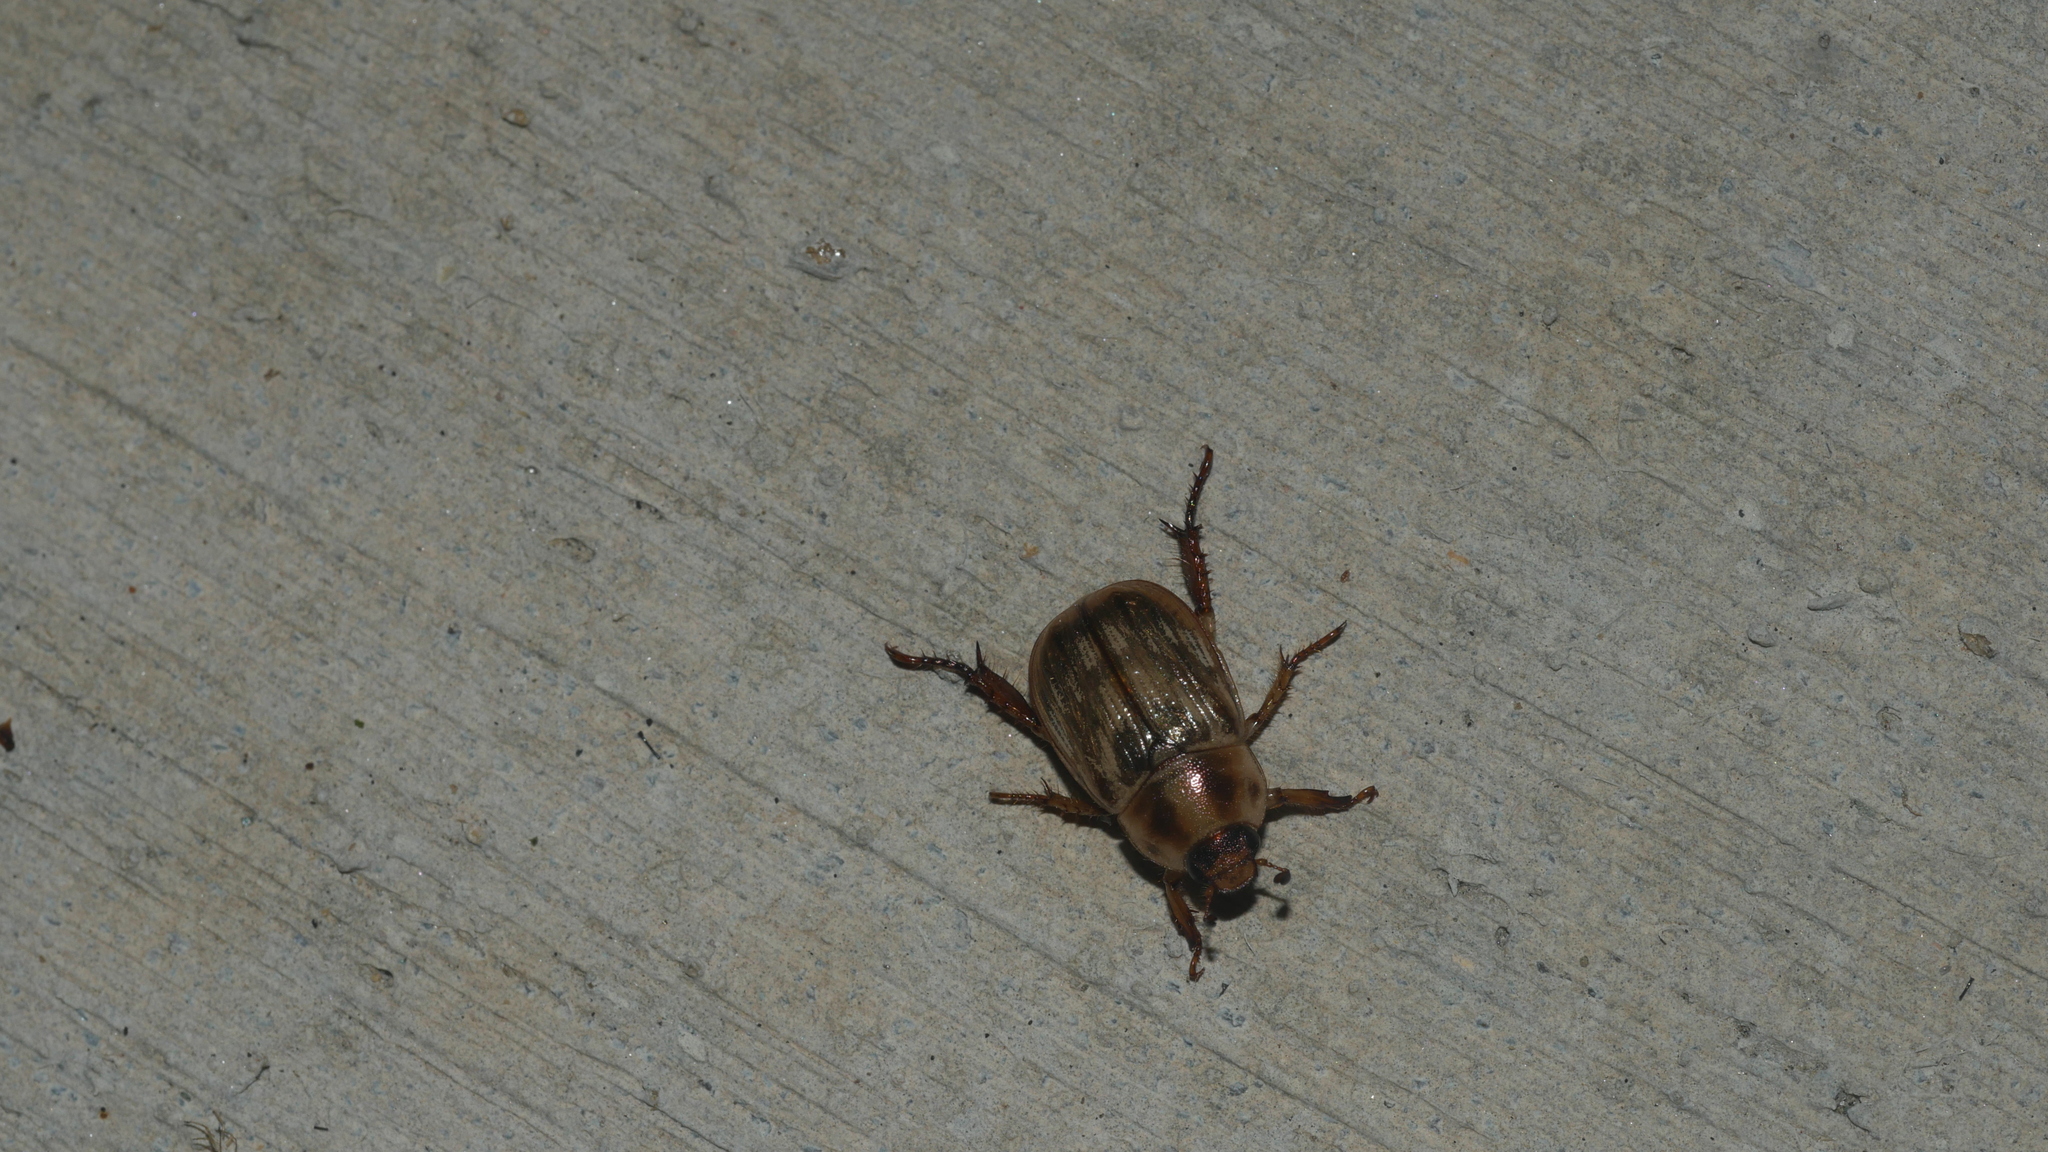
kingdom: Animalia
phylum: Arthropoda
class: Insecta
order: Coleoptera
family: Scarabaeidae
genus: Exomala
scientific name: Exomala orientalis
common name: Oriental beetle
